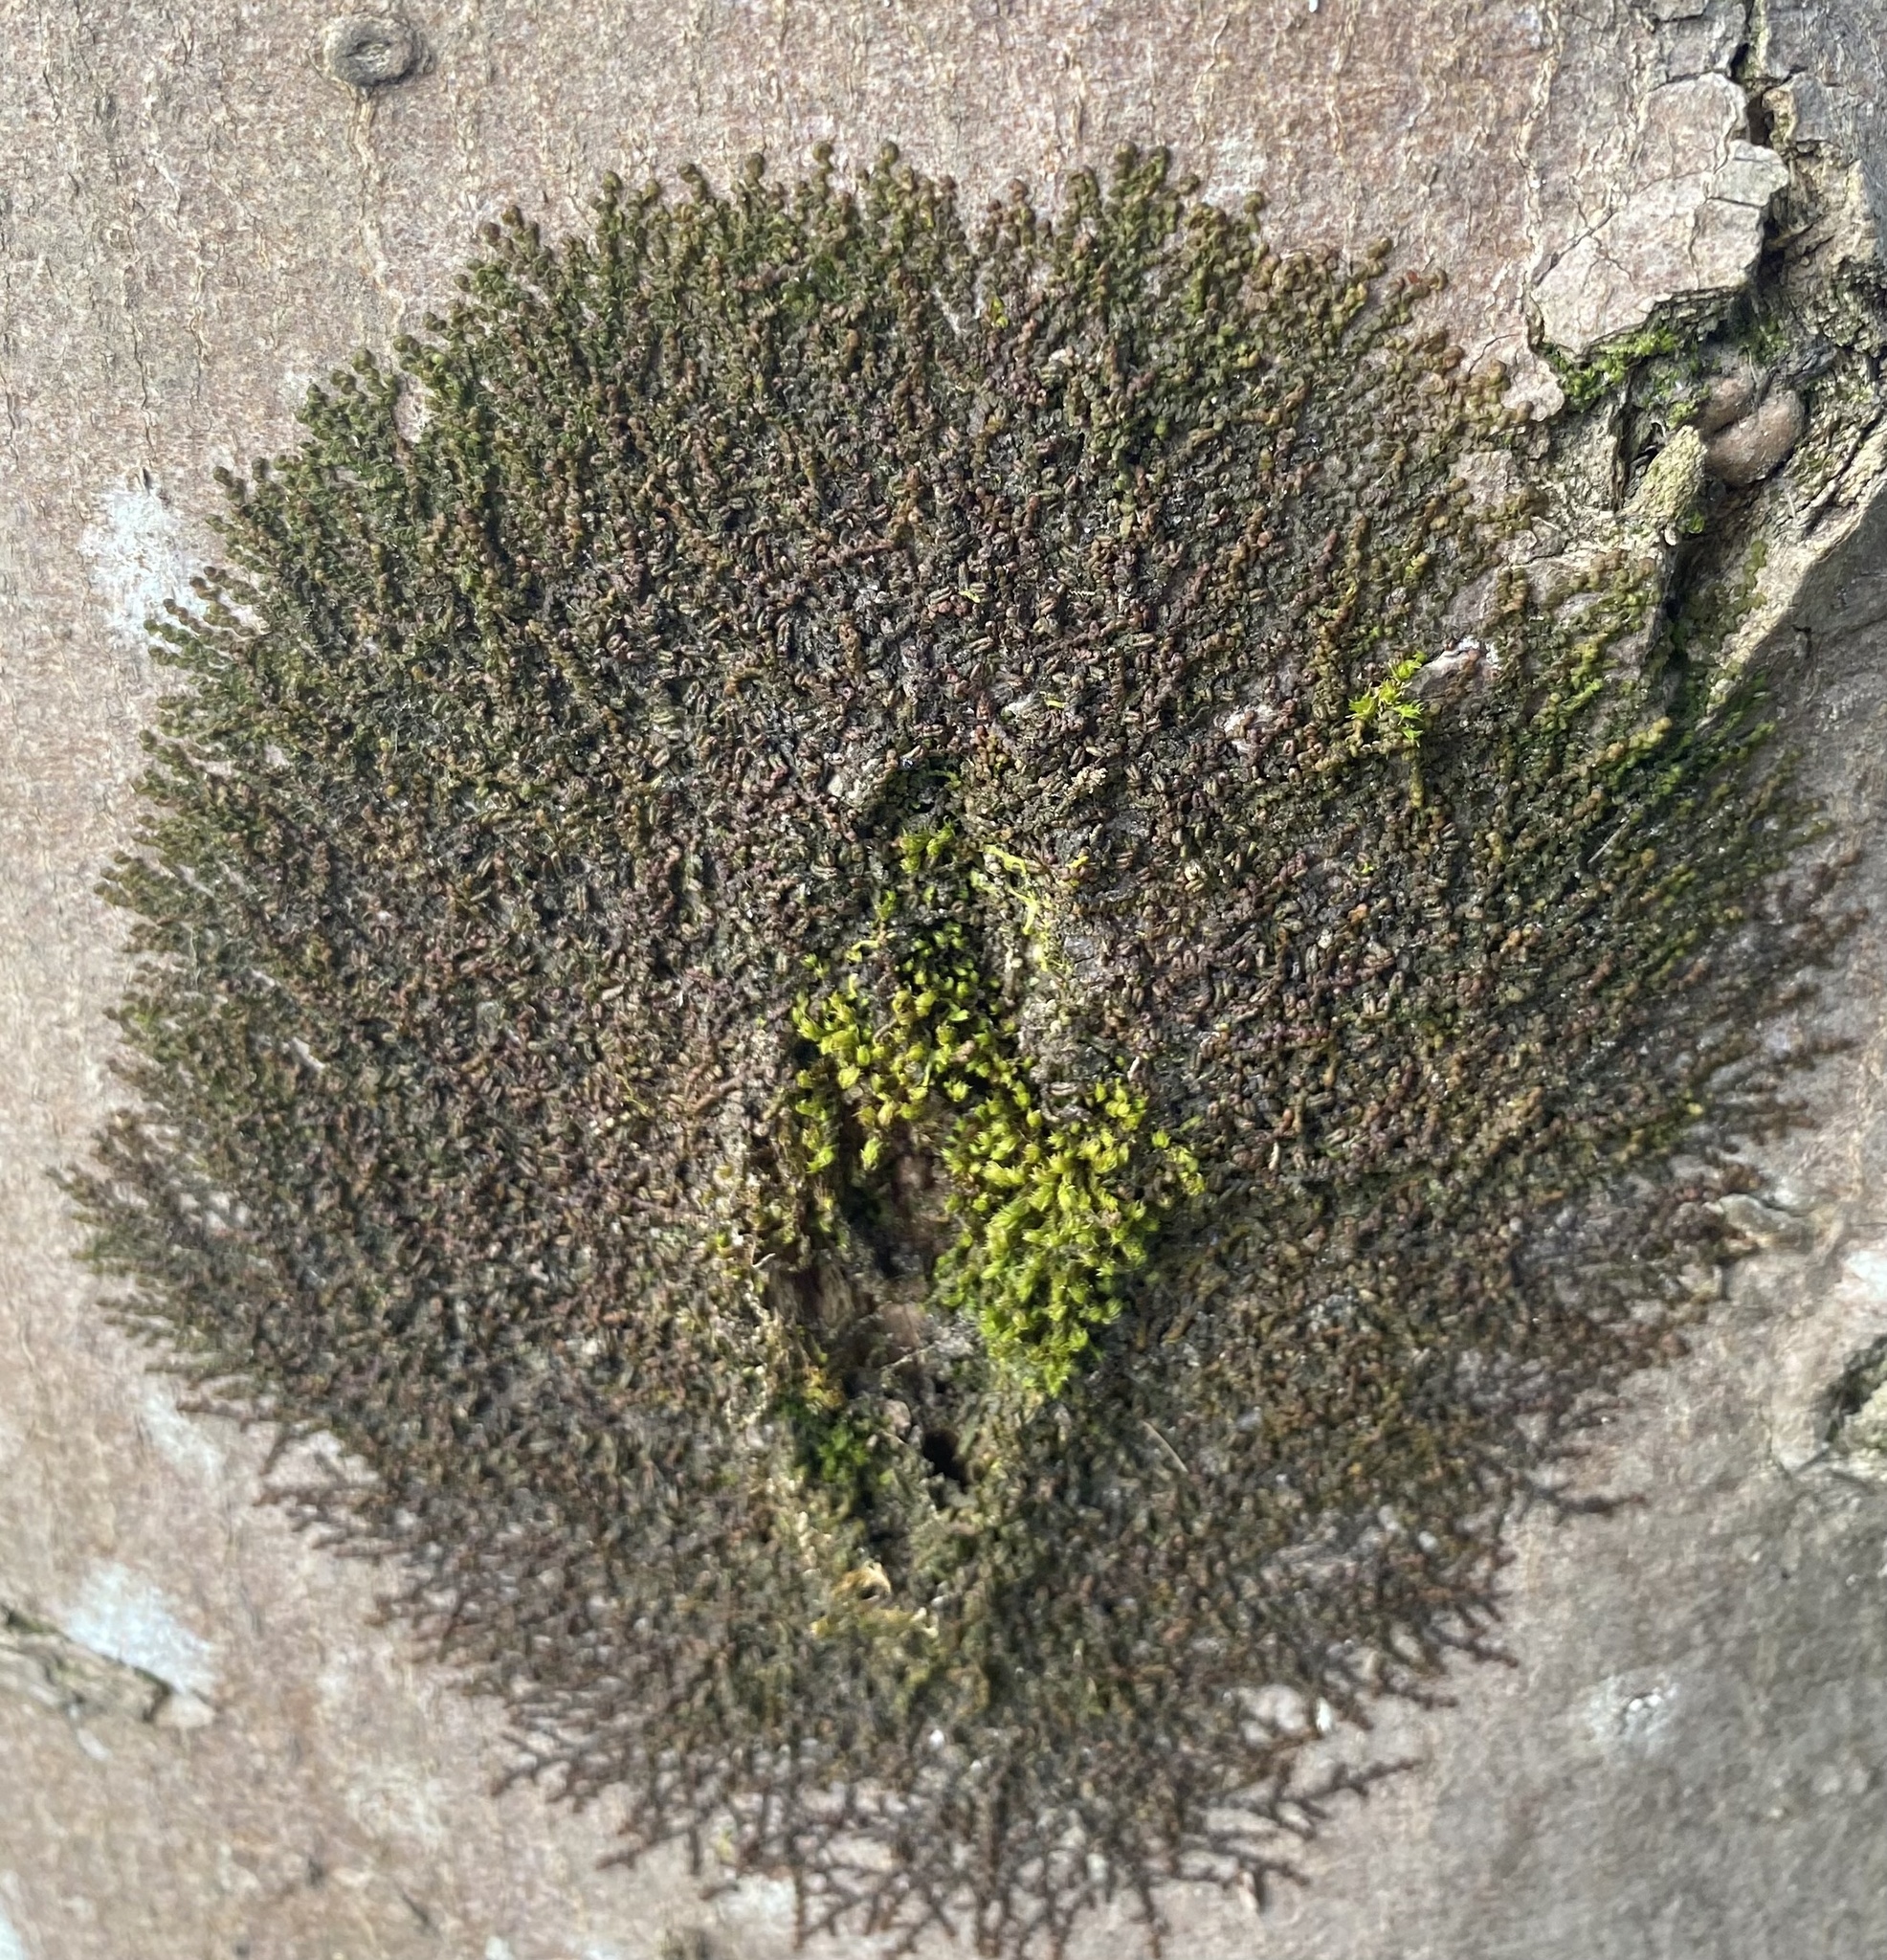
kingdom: Plantae
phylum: Marchantiophyta
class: Jungermanniopsida
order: Porellales
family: Frullaniaceae
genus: Frullania
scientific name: Frullania dilatata
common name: Dilated scalewort
